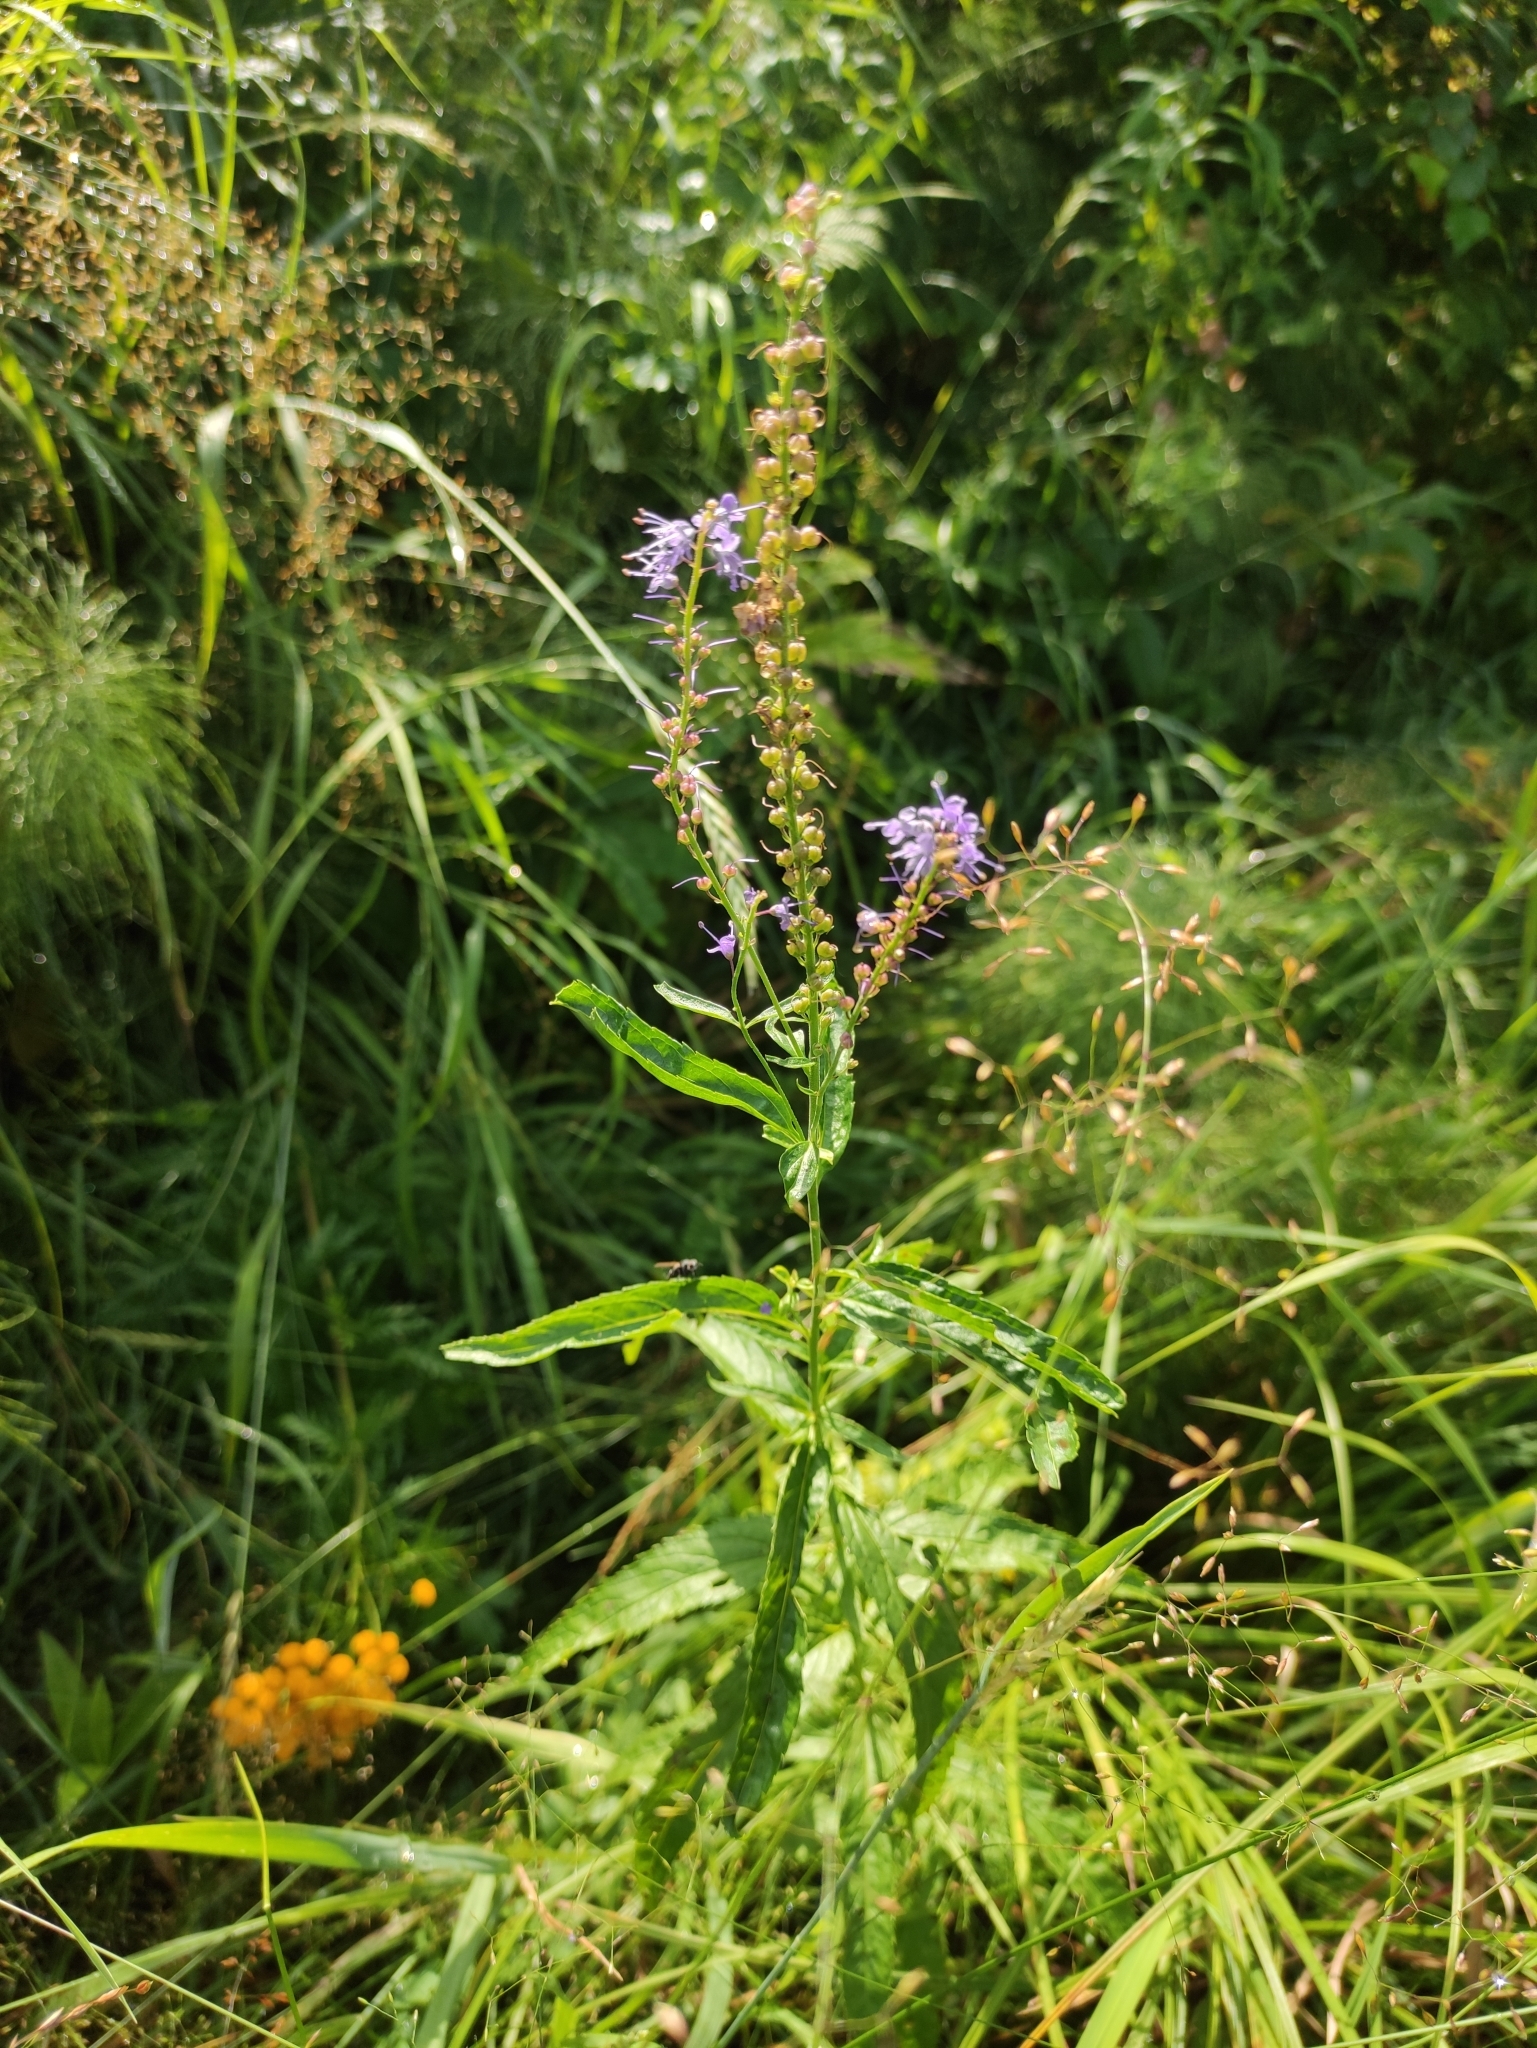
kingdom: Plantae
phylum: Tracheophyta
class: Magnoliopsida
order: Lamiales
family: Plantaginaceae
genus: Veronica
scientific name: Veronica longifolia
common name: Garden speedwell
